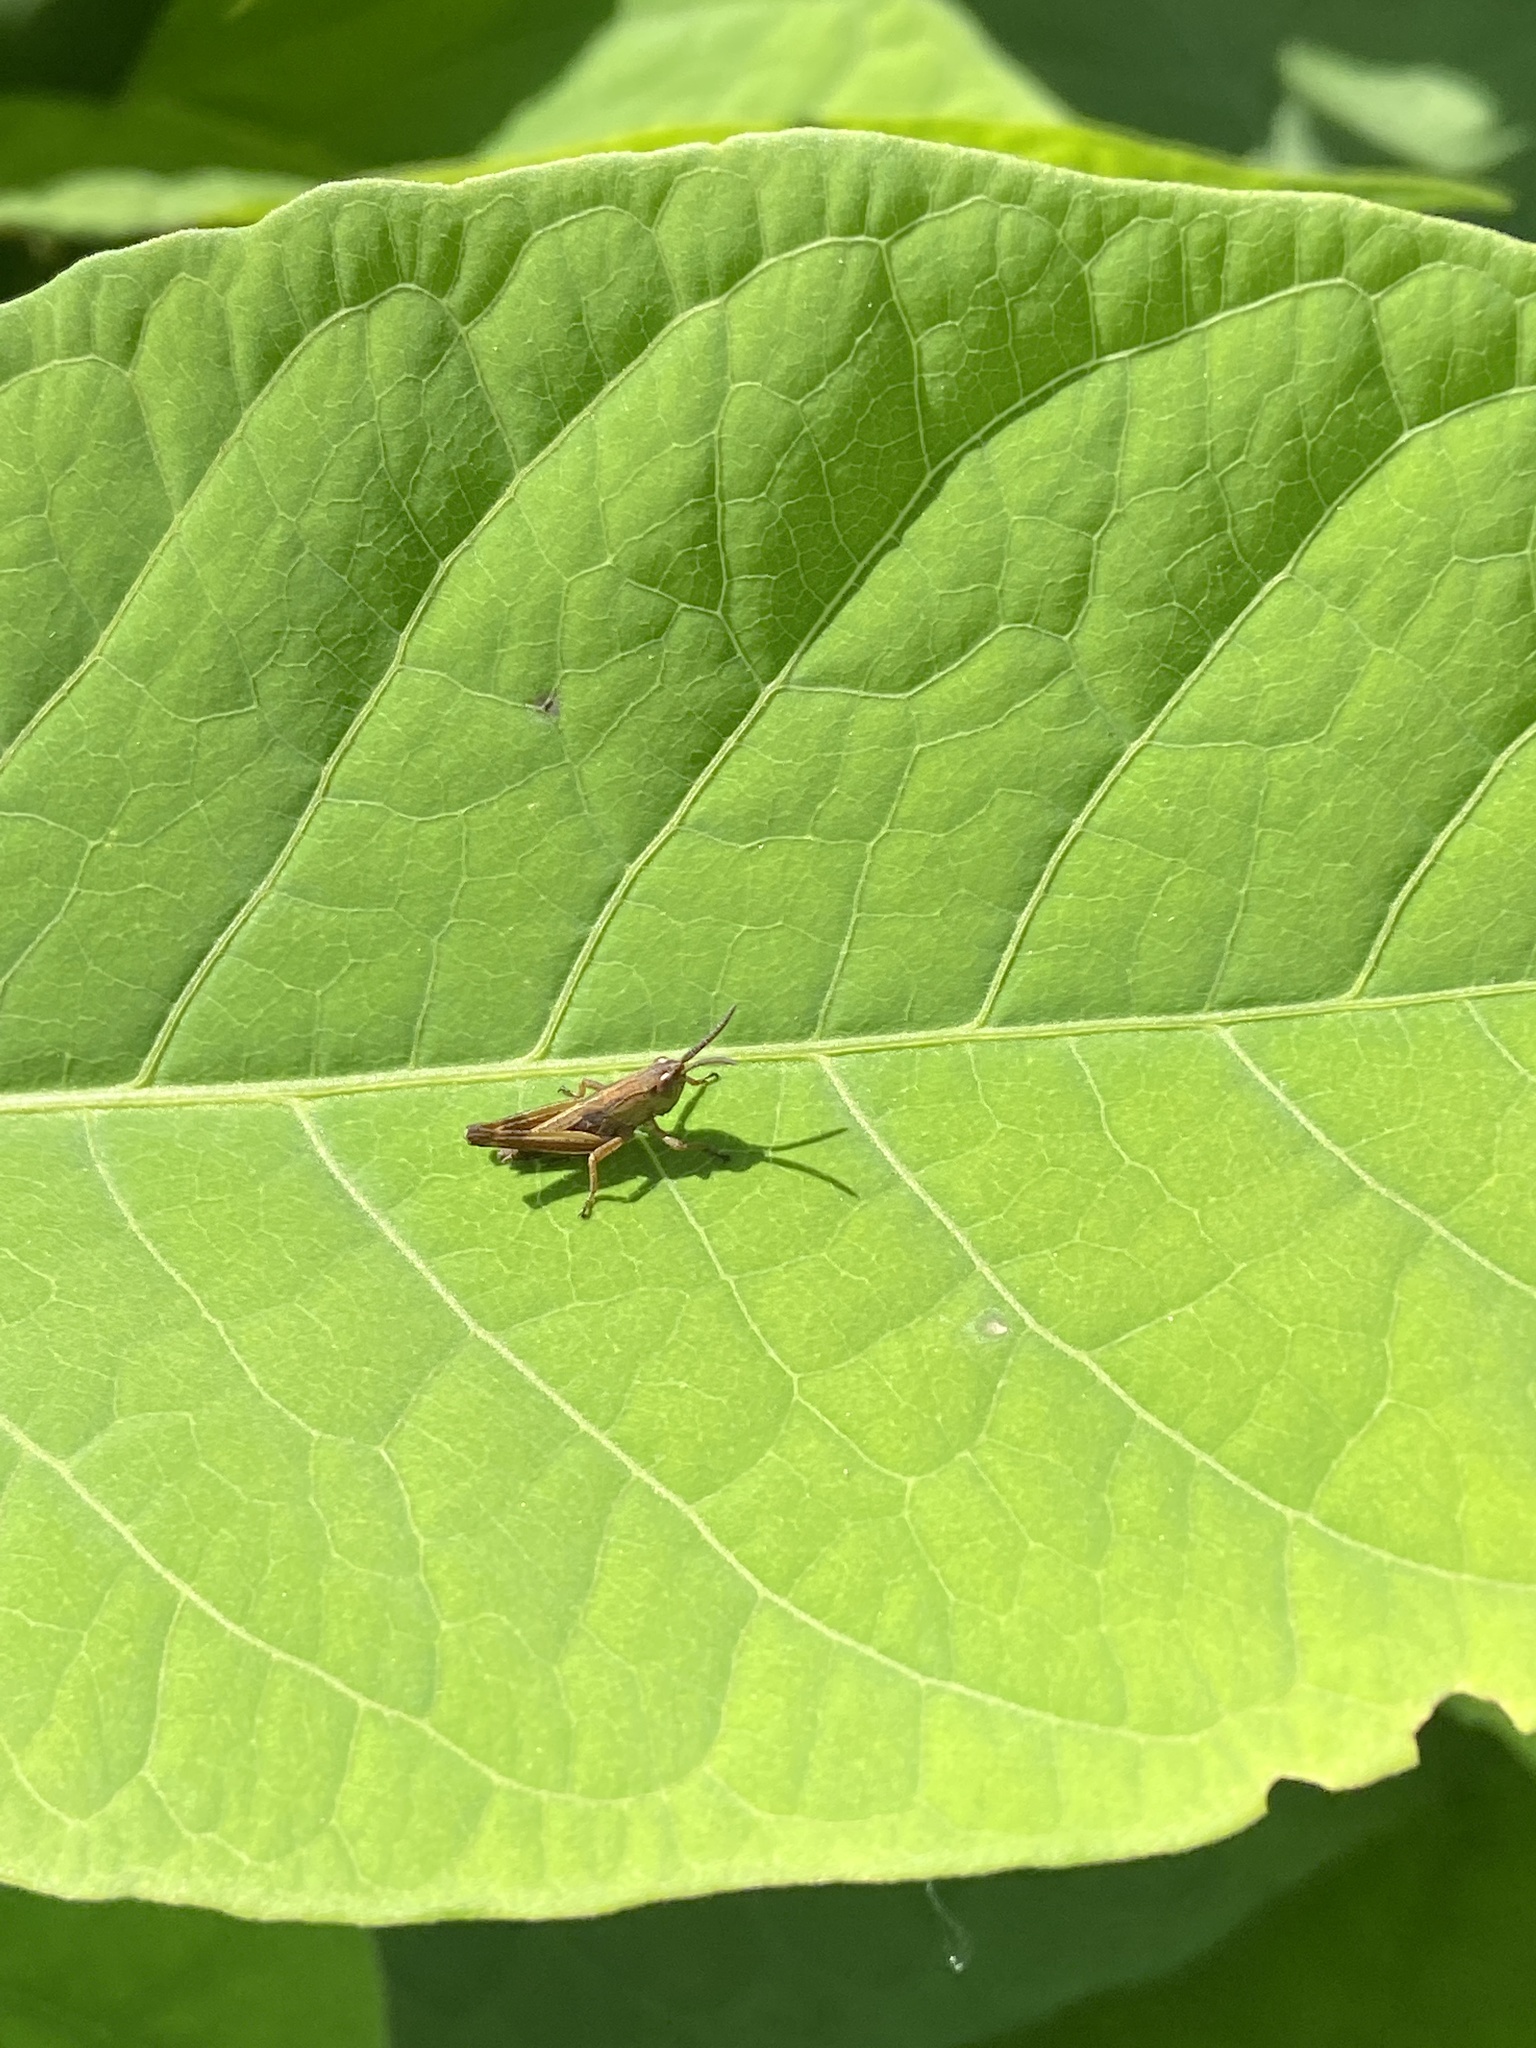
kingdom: Animalia
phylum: Arthropoda
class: Insecta
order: Orthoptera
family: Acrididae
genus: Pseudochorthippus
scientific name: Pseudochorthippus parallelus
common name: Meadow grasshopper
